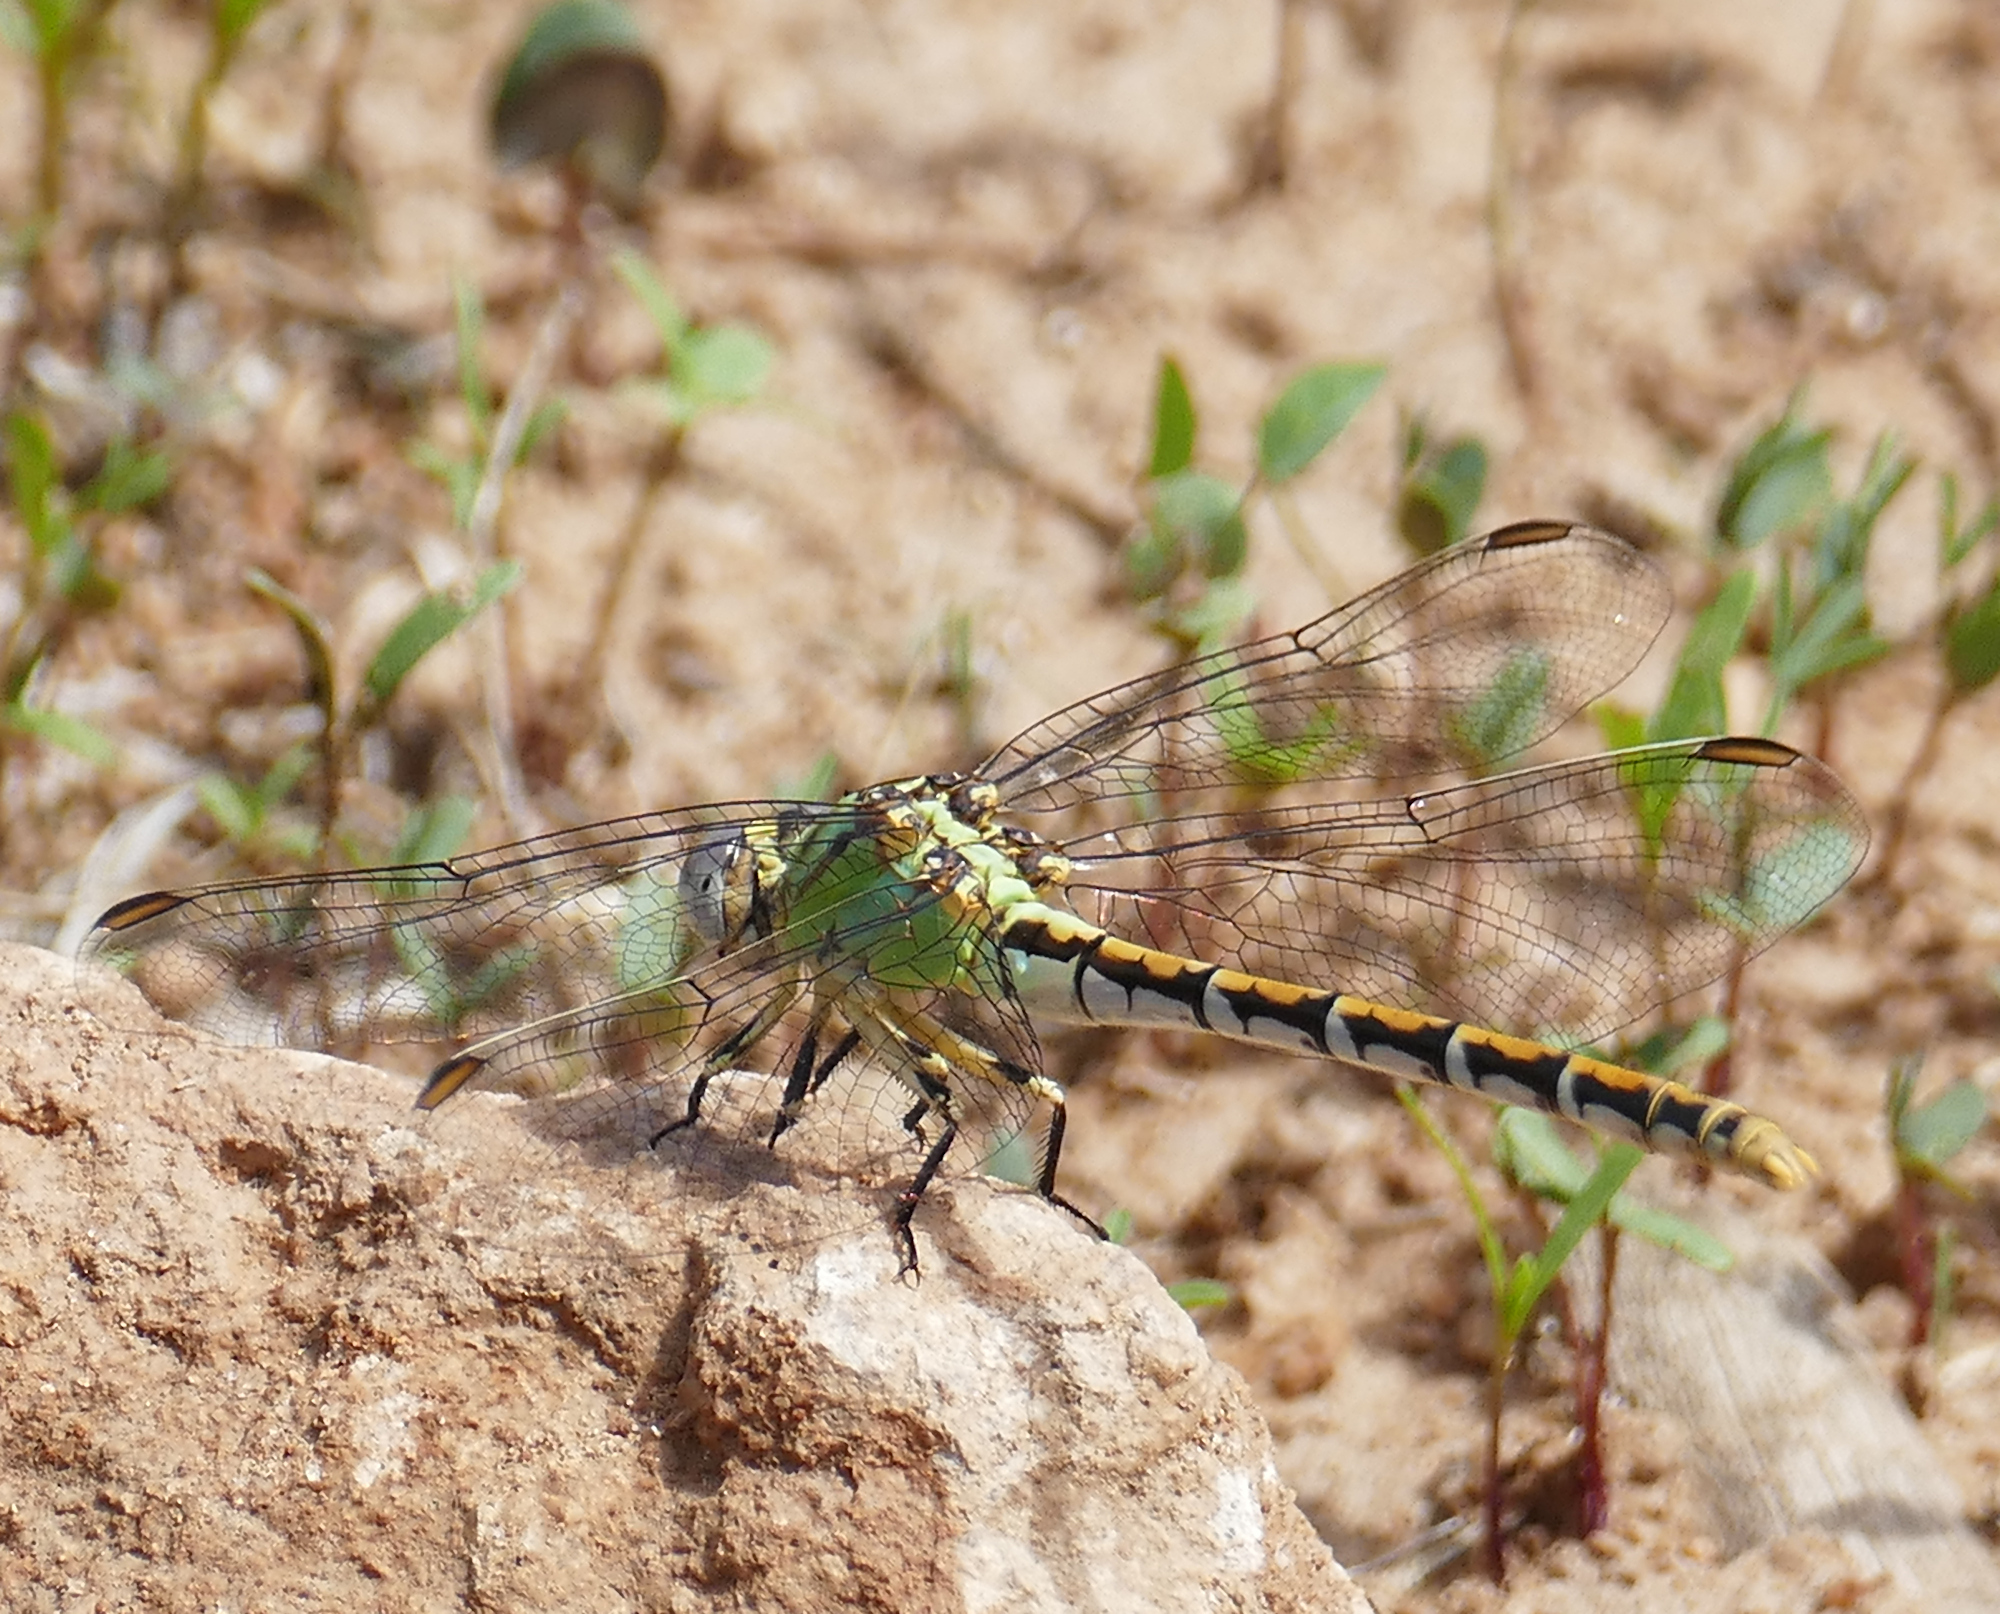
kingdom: Animalia
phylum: Arthropoda
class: Insecta
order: Odonata
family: Gomphidae
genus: Ophiogomphus
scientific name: Ophiogomphus arizonicus
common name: Arizona snaketail
